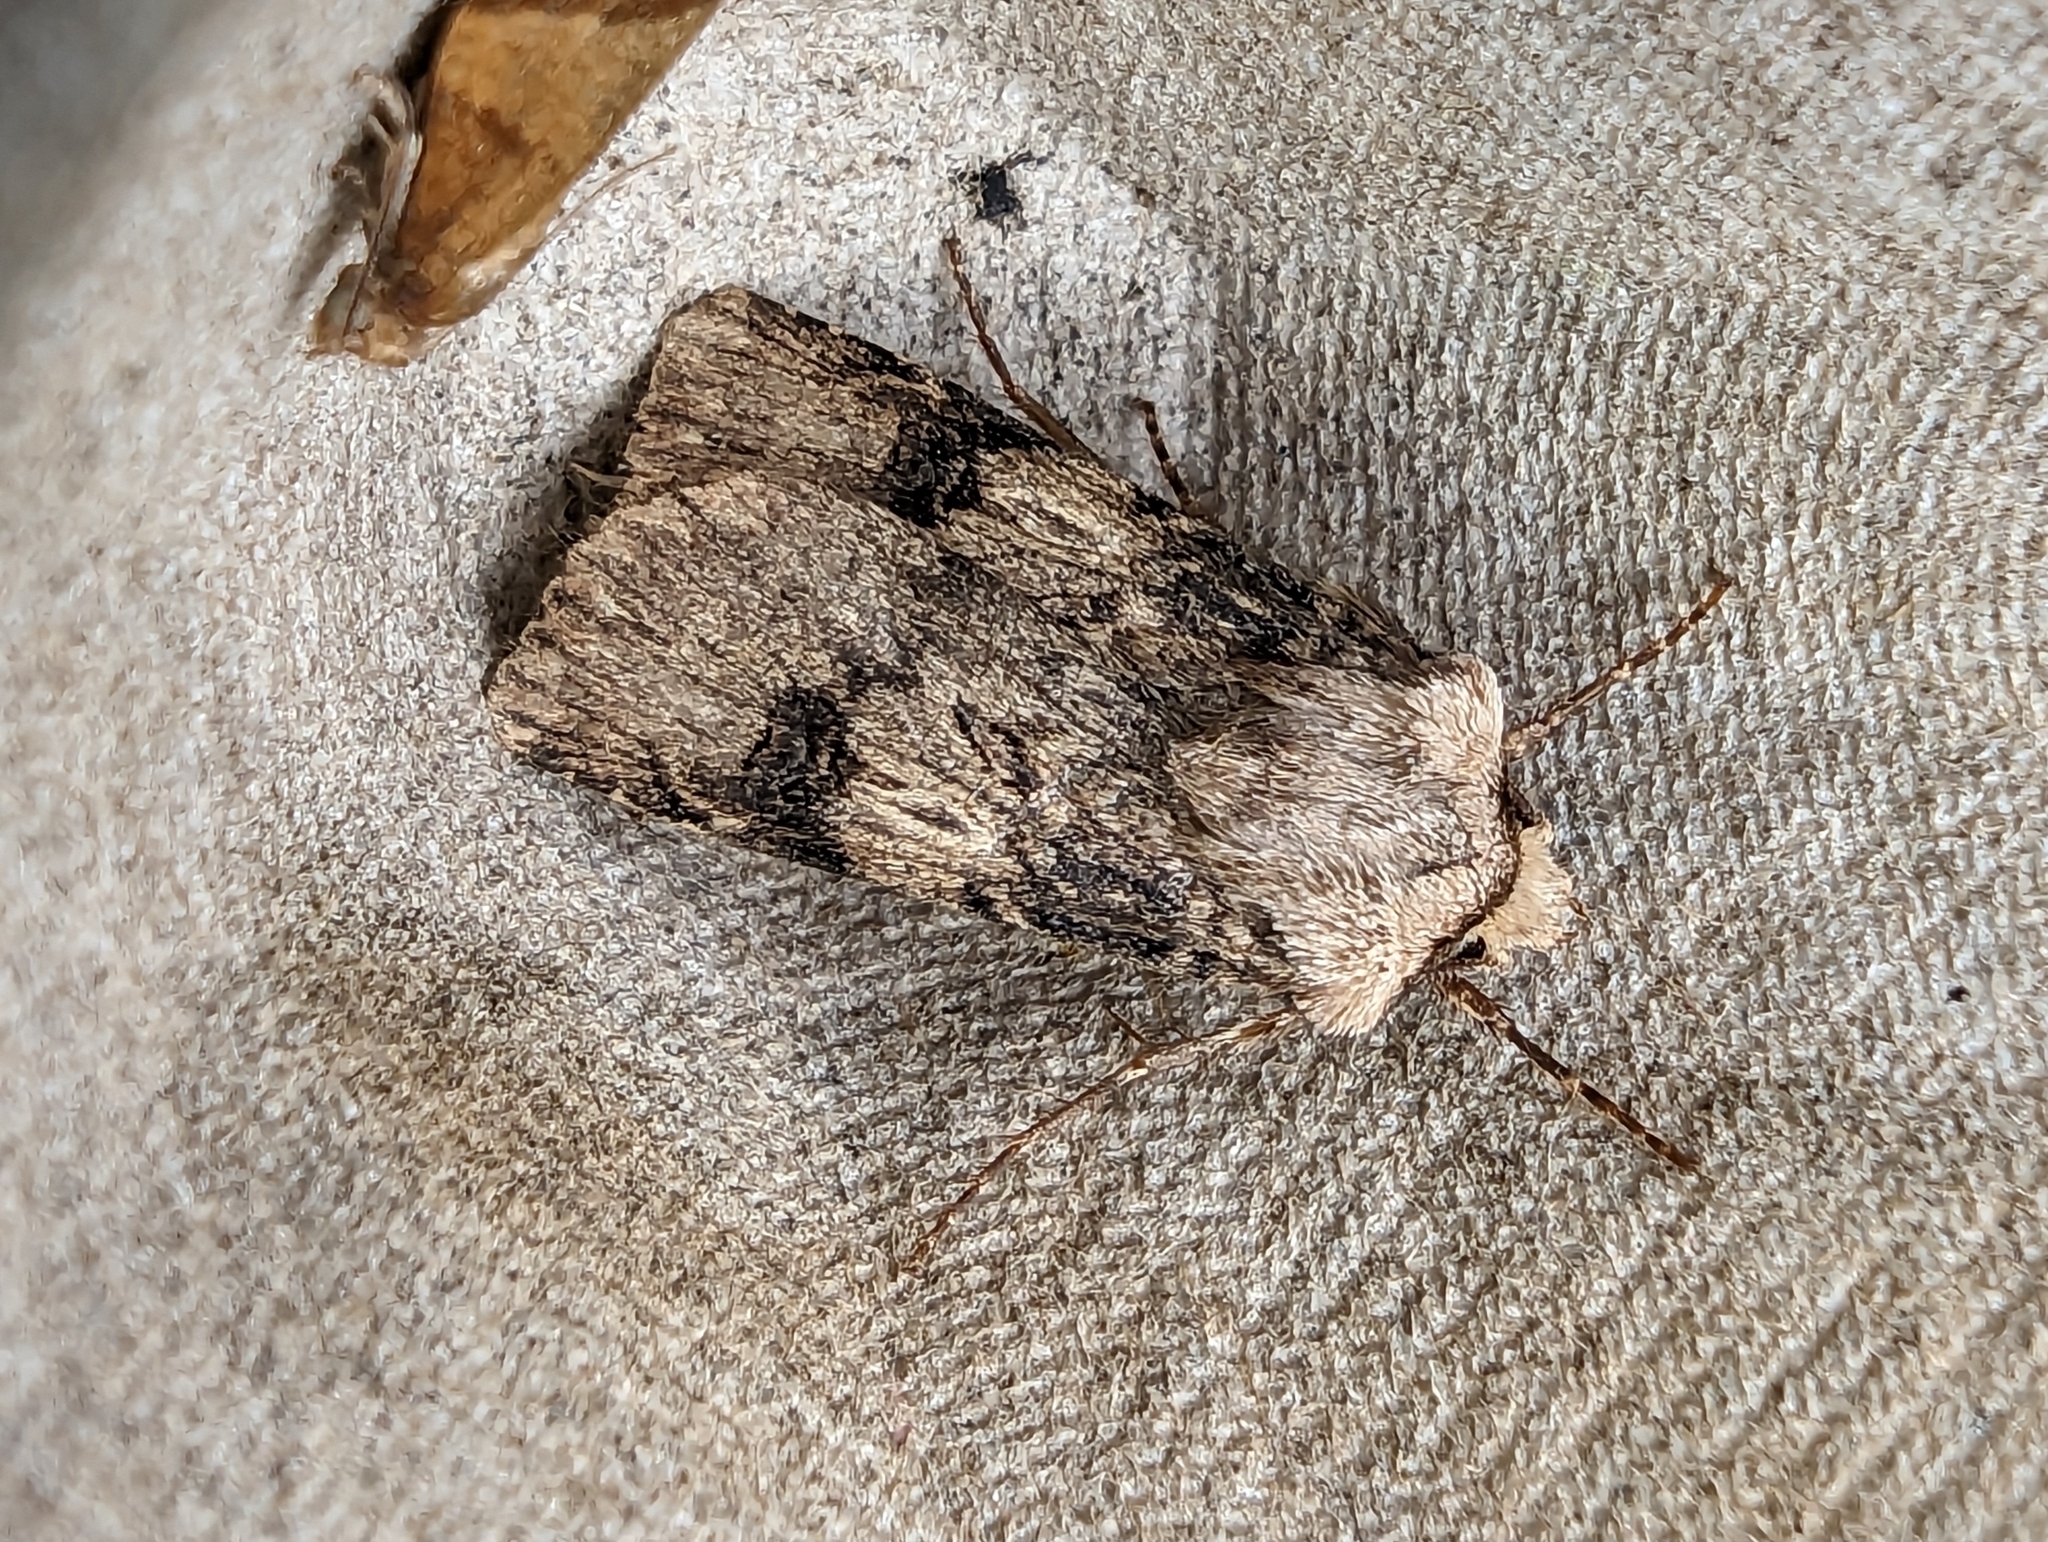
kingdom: Animalia
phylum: Arthropoda
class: Insecta
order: Lepidoptera
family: Noctuidae
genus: Agrotis
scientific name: Agrotis puta
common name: Shuttle-shaped dart
